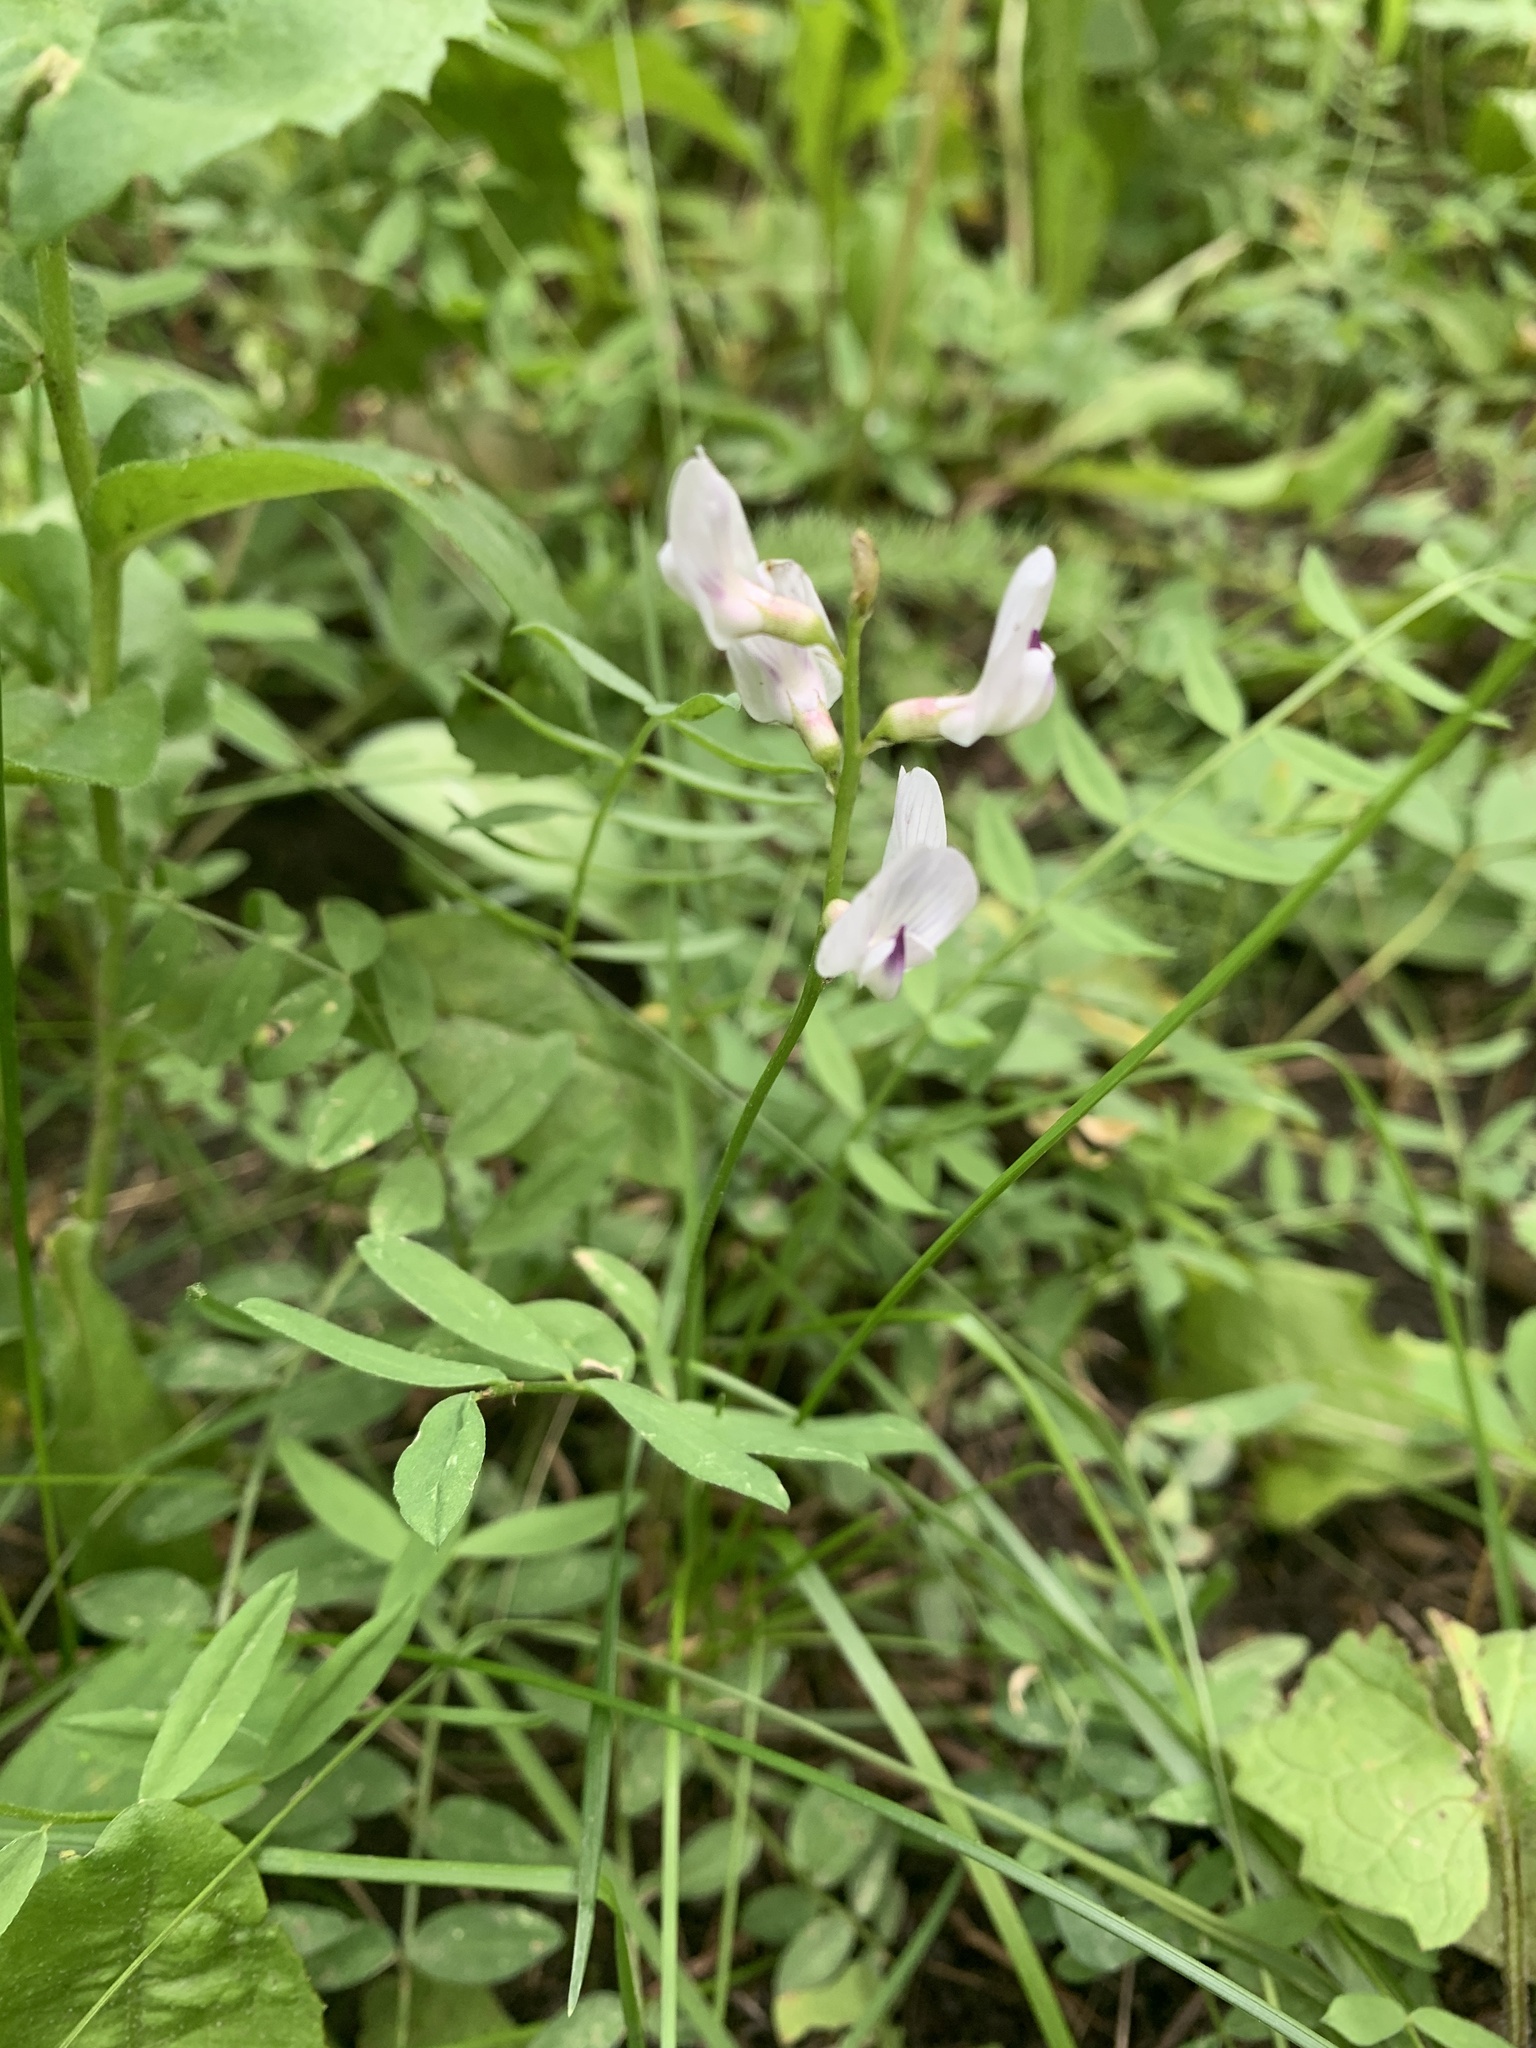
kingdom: Plantae
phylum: Tracheophyta
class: Magnoliopsida
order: Fabales
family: Fabaceae
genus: Astragalus
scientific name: Astragalus miser
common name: Timber milkvetch
